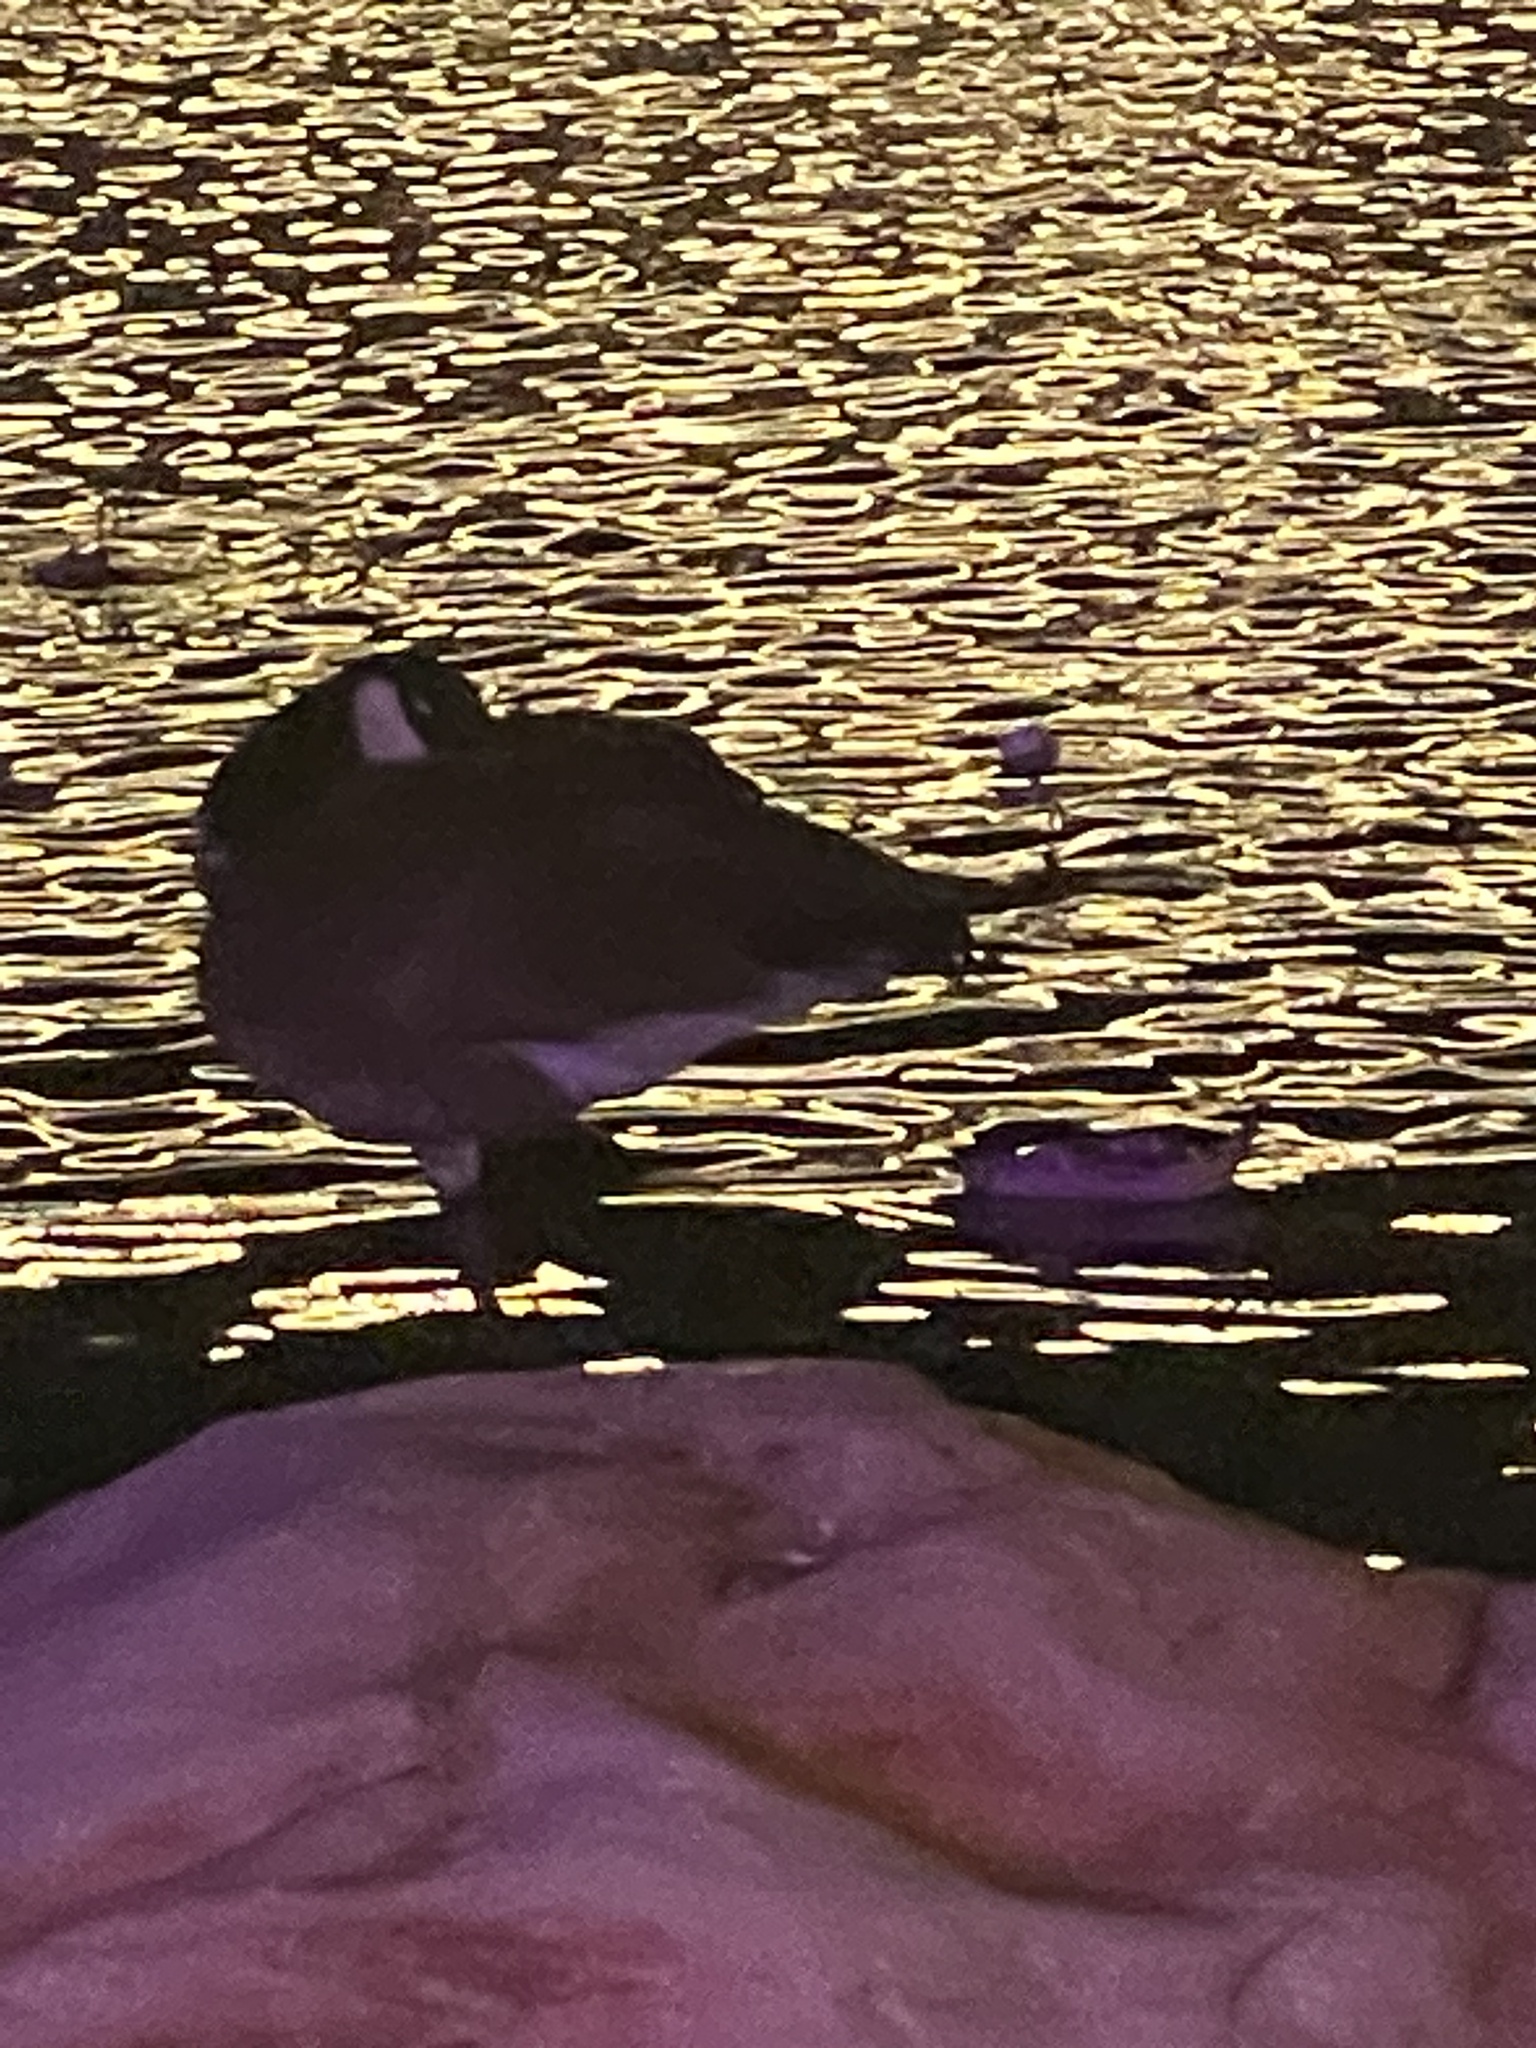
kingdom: Animalia
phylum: Chordata
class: Aves
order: Anseriformes
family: Anatidae
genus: Branta
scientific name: Branta canadensis
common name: Canada goose
